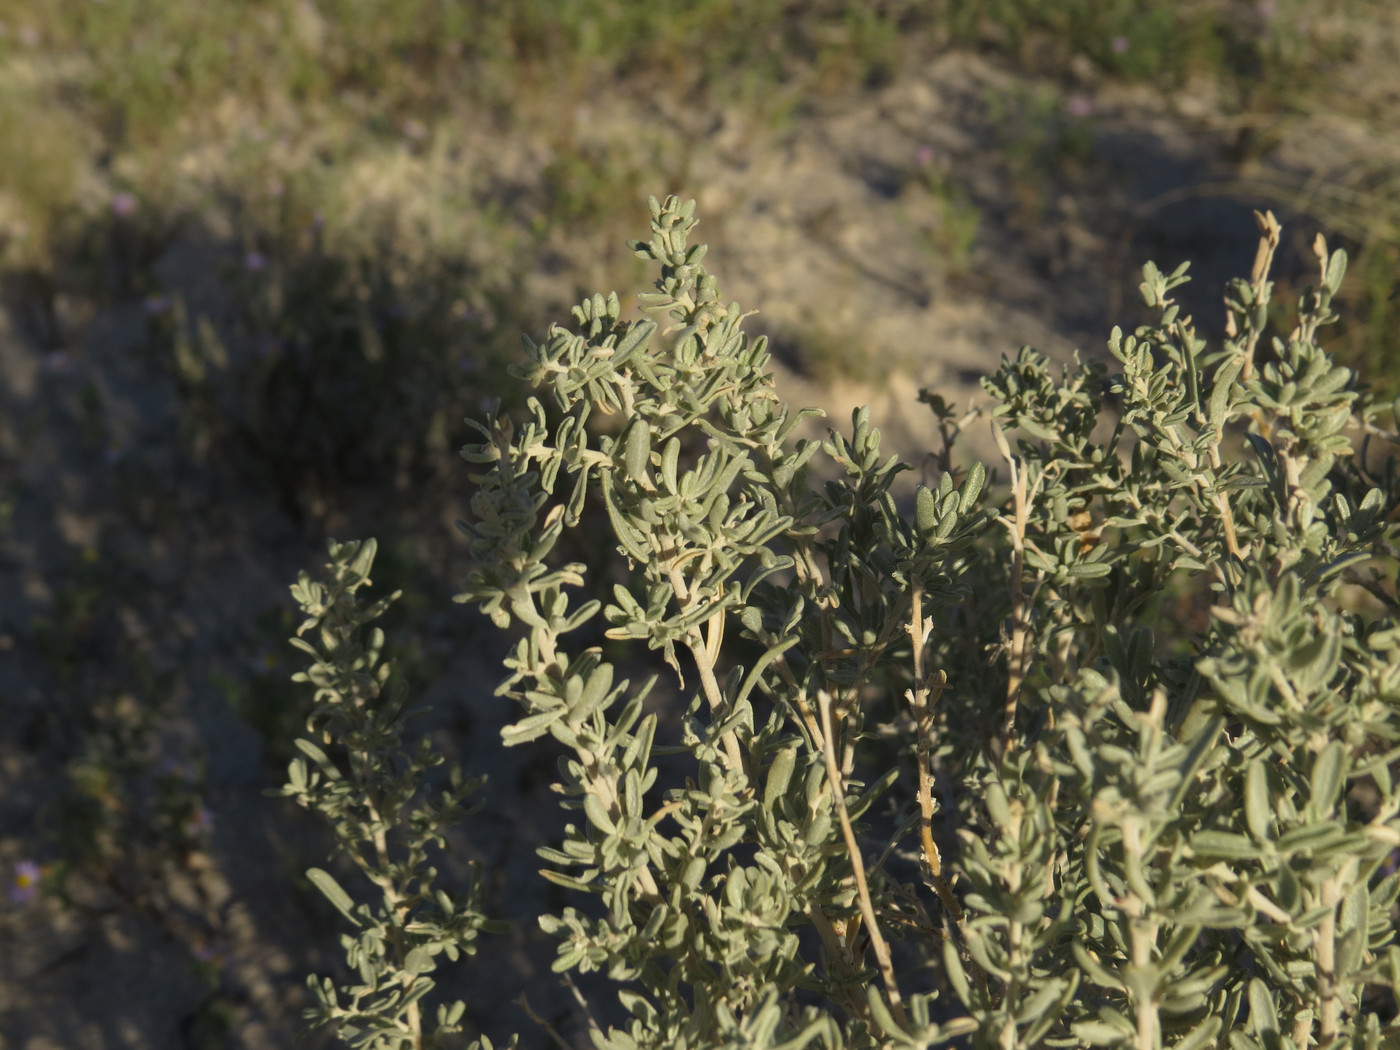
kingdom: Plantae
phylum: Tracheophyta
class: Magnoliopsida
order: Caryophyllales
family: Amaranthaceae
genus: Atriplex
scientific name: Atriplex canescens
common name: Four-wing saltbush
